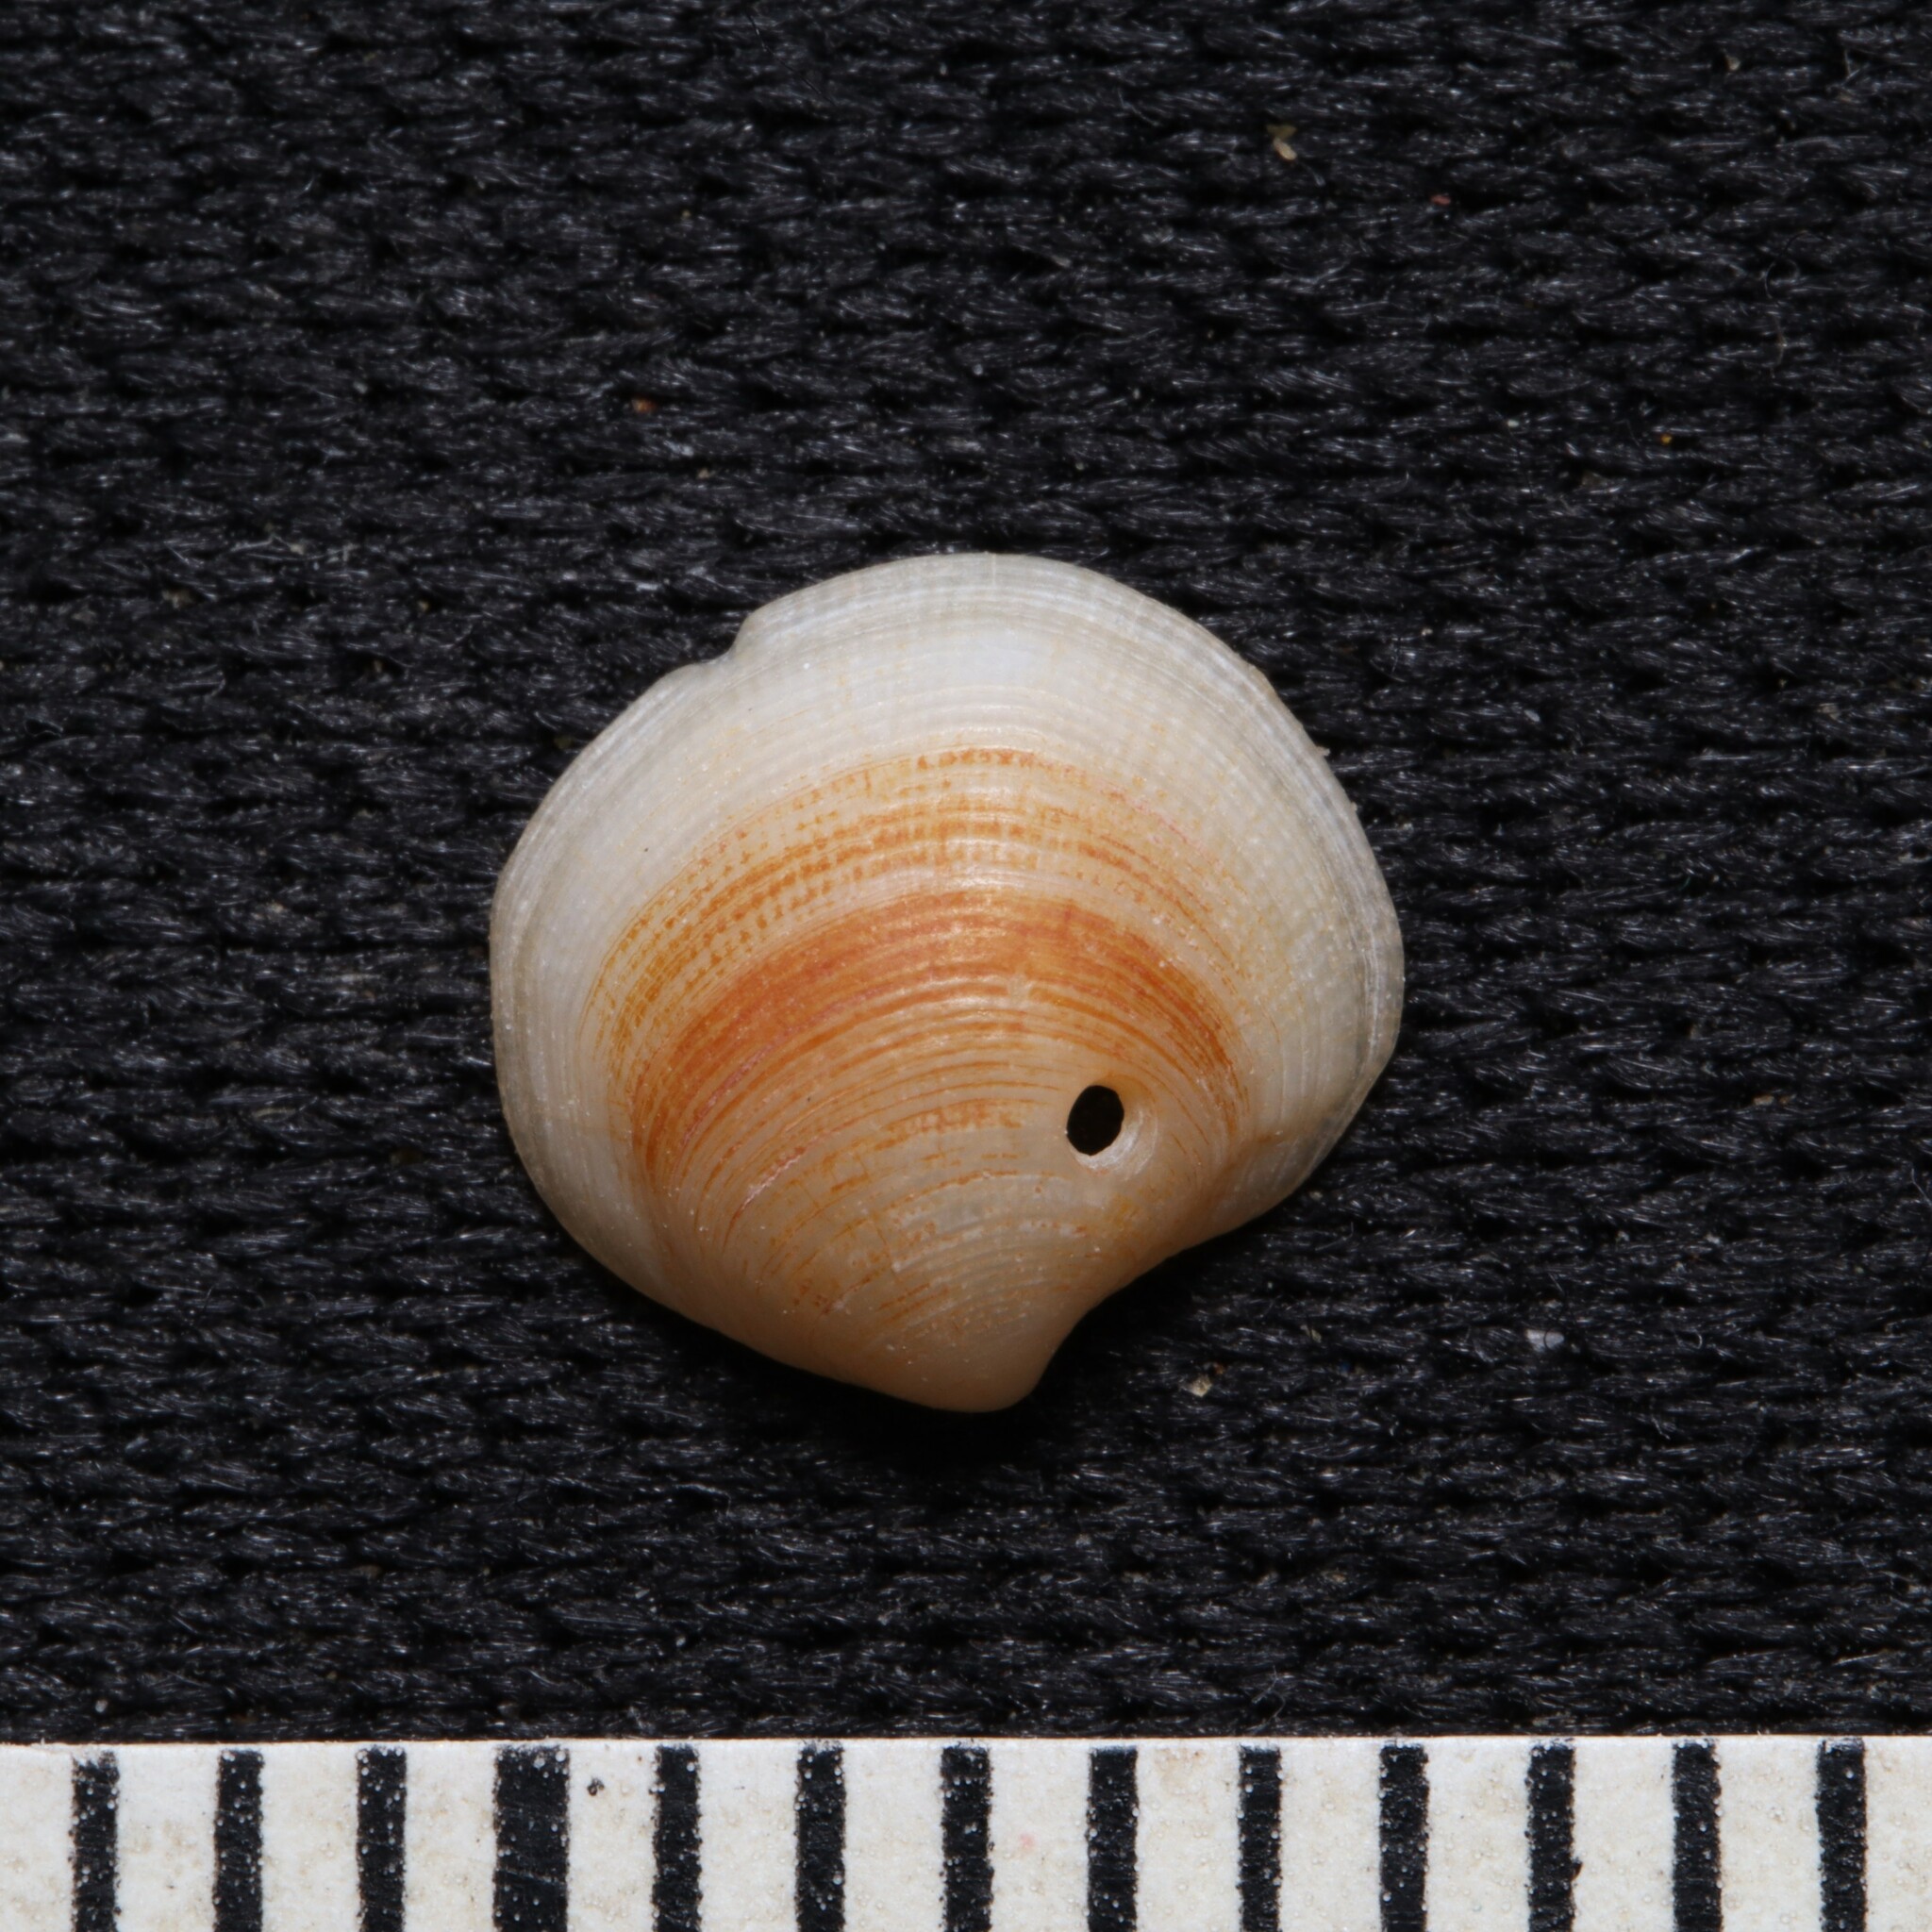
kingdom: Animalia
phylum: Mollusca
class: Bivalvia
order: Lucinida
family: Lucinidae
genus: Parvilucina
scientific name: Parvilucina crenella
